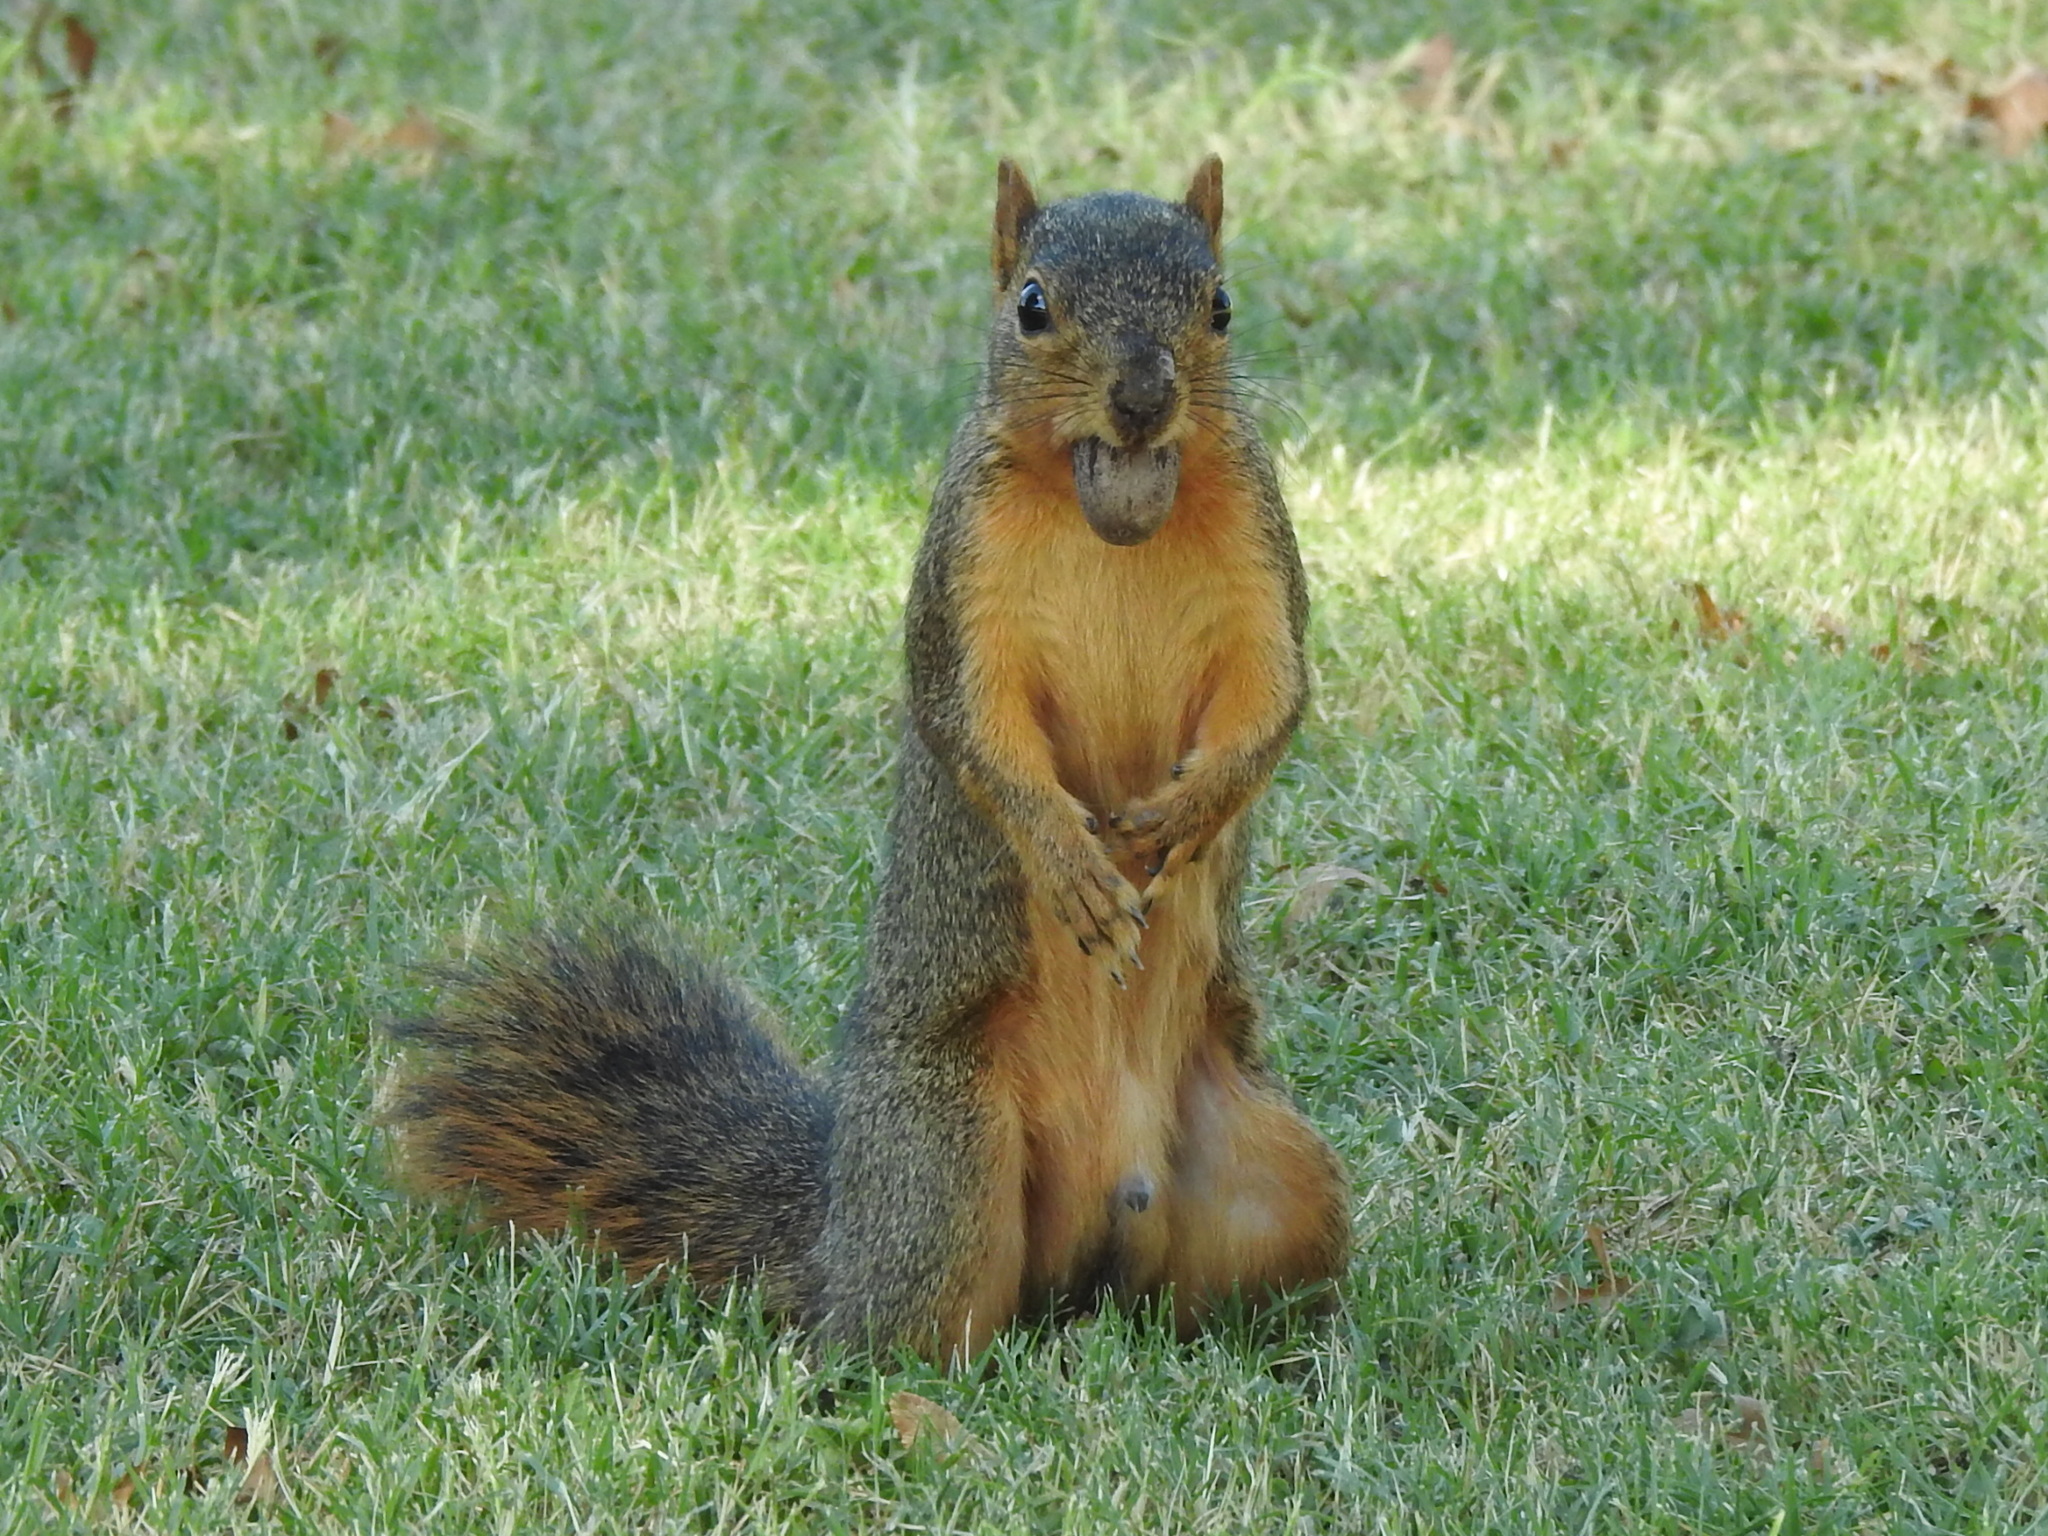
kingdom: Animalia
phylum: Chordata
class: Mammalia
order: Rodentia
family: Sciuridae
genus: Sciurus
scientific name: Sciurus niger
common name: Fox squirrel
